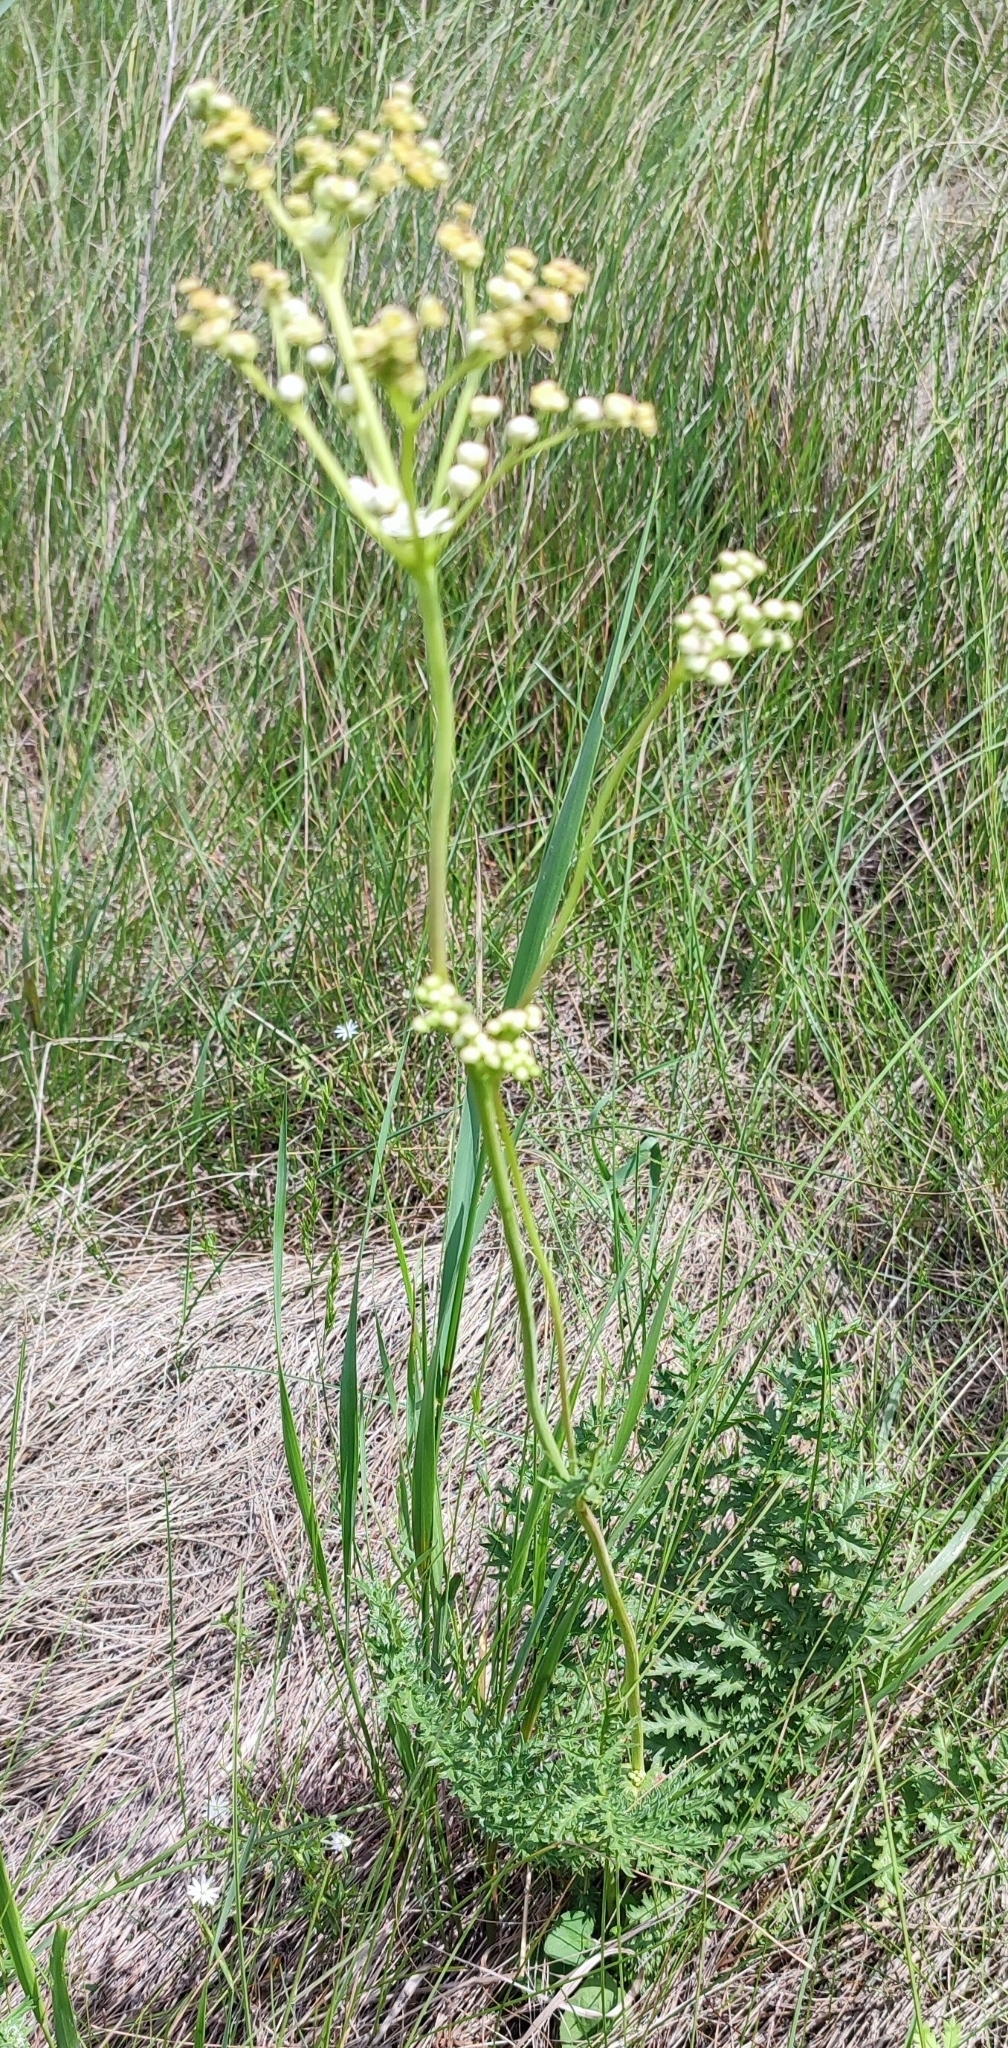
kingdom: Plantae
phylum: Tracheophyta
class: Magnoliopsida
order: Rosales
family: Rosaceae
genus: Filipendula
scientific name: Filipendula vulgaris
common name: Dropwort
